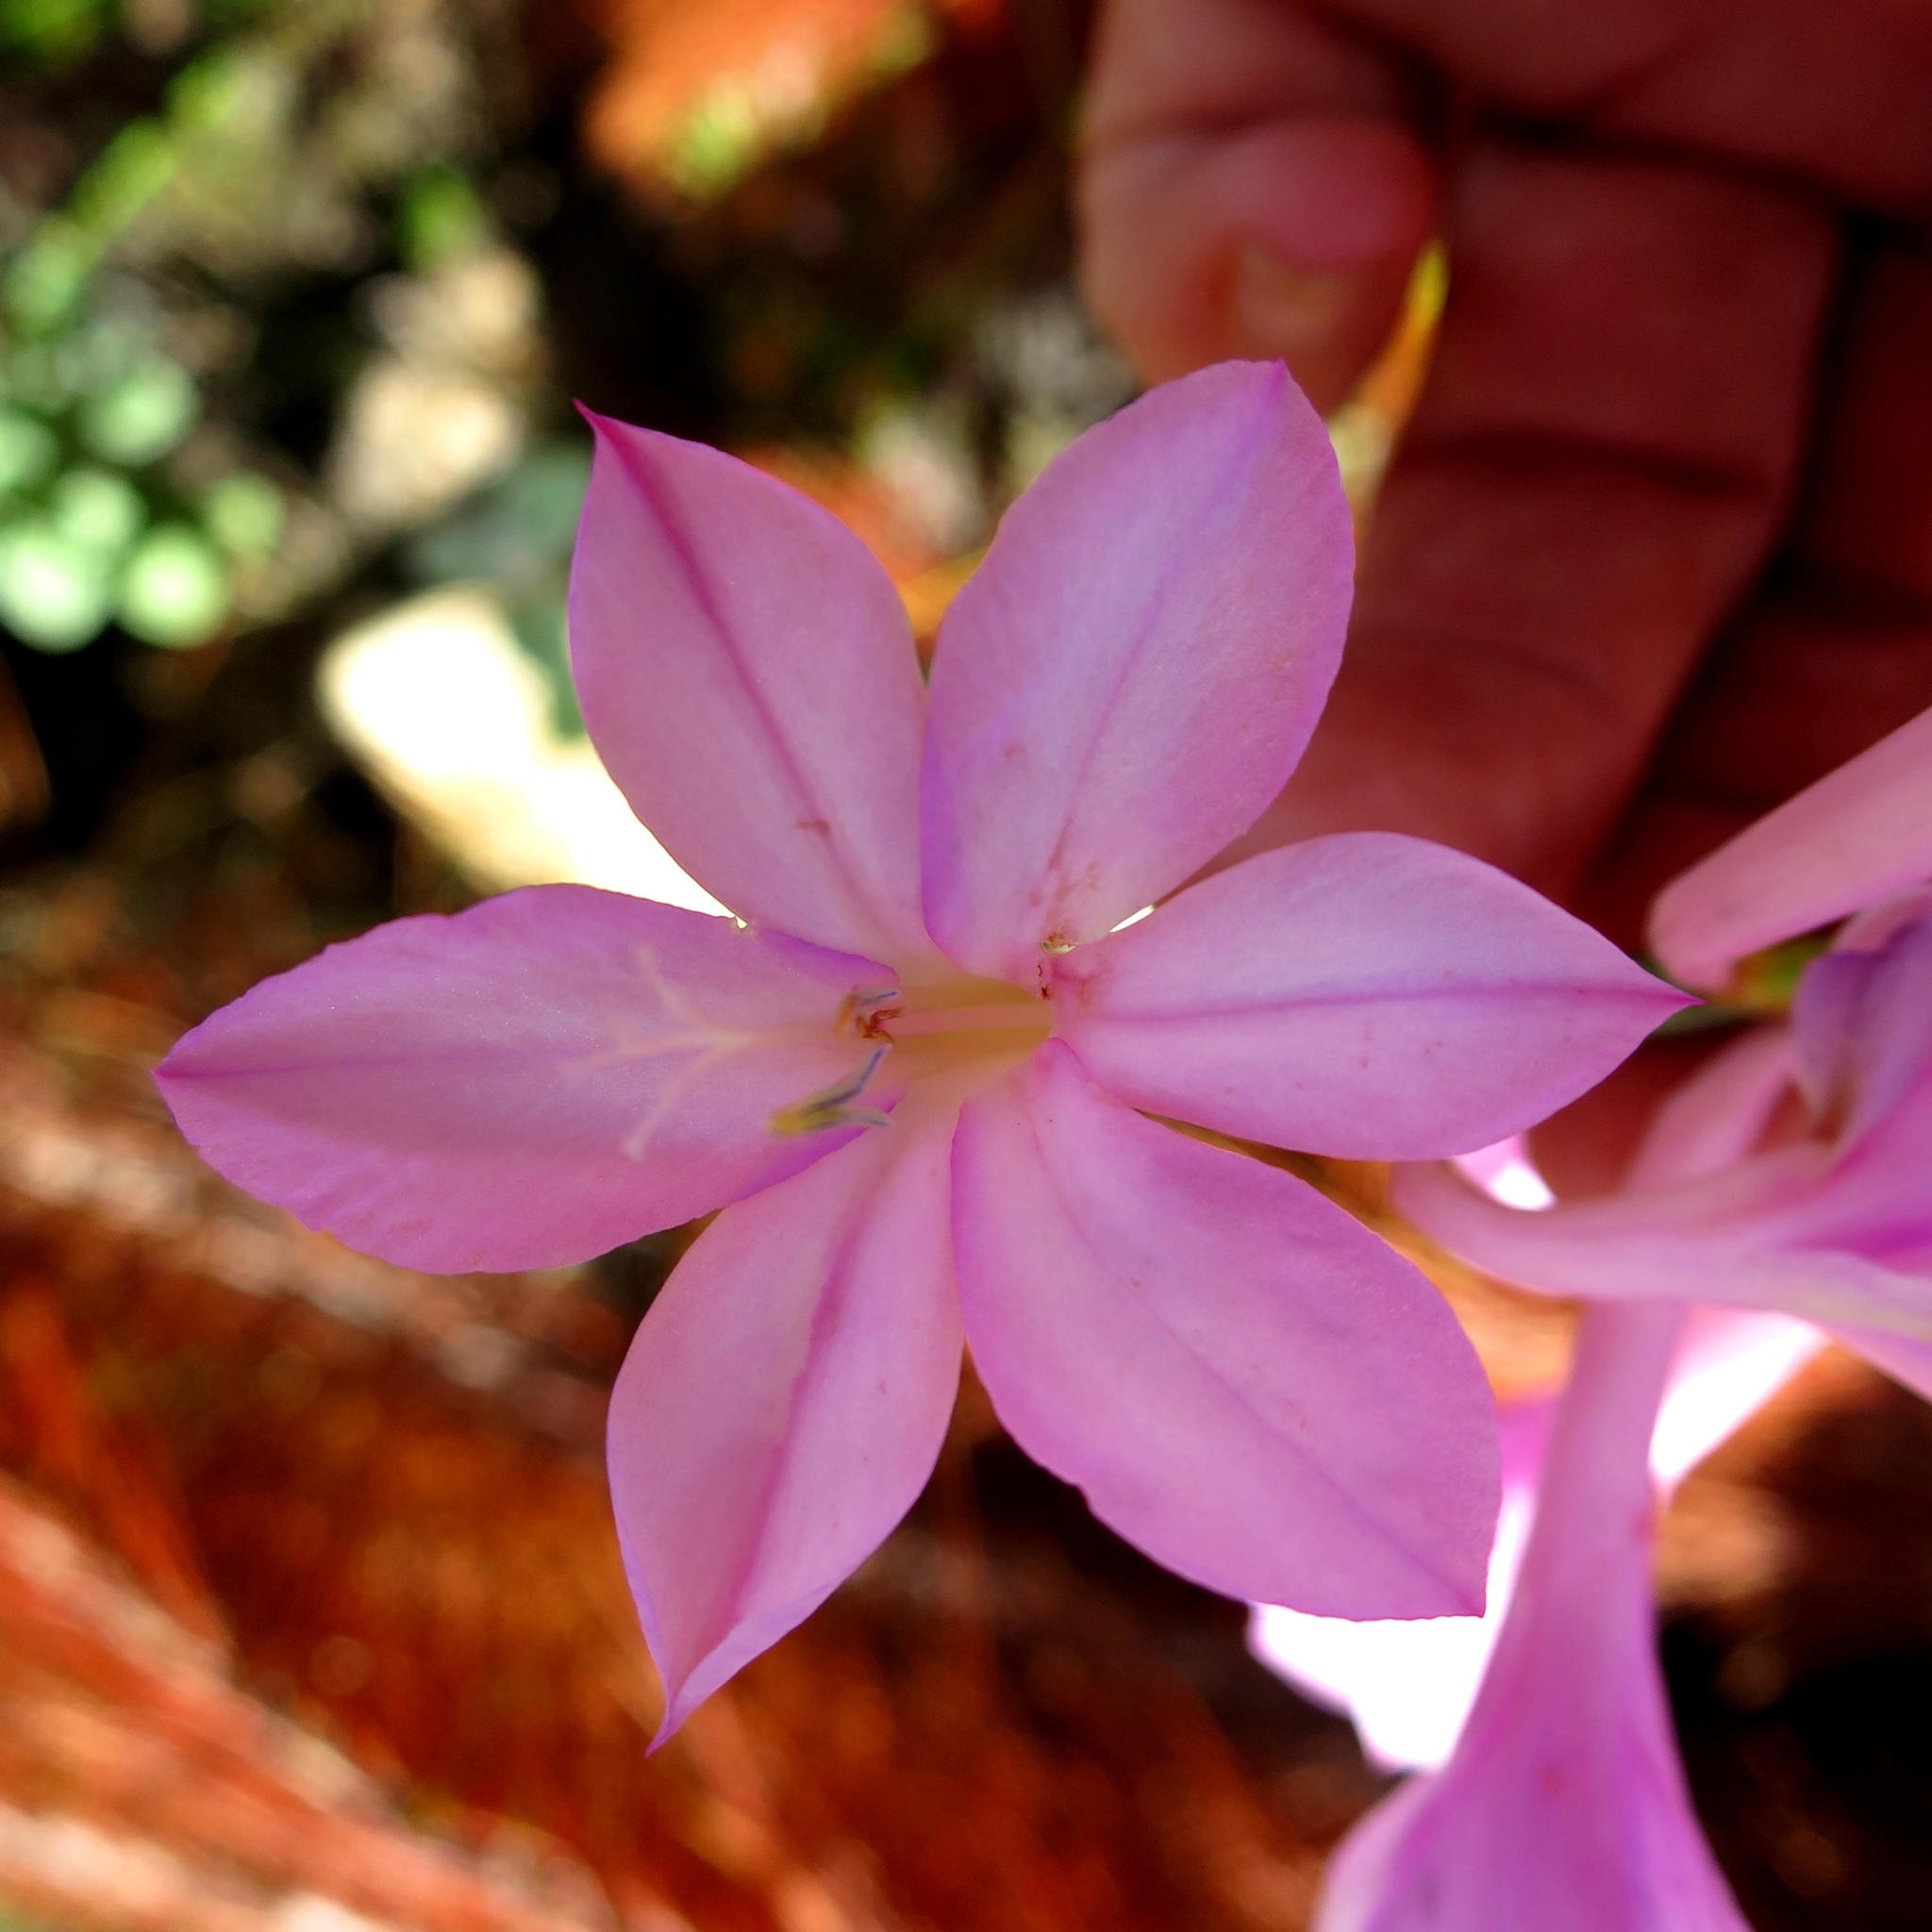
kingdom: Plantae
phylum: Tracheophyta
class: Liliopsida
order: Asparagales
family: Iridaceae
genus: Watsonia
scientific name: Watsonia knysnana
